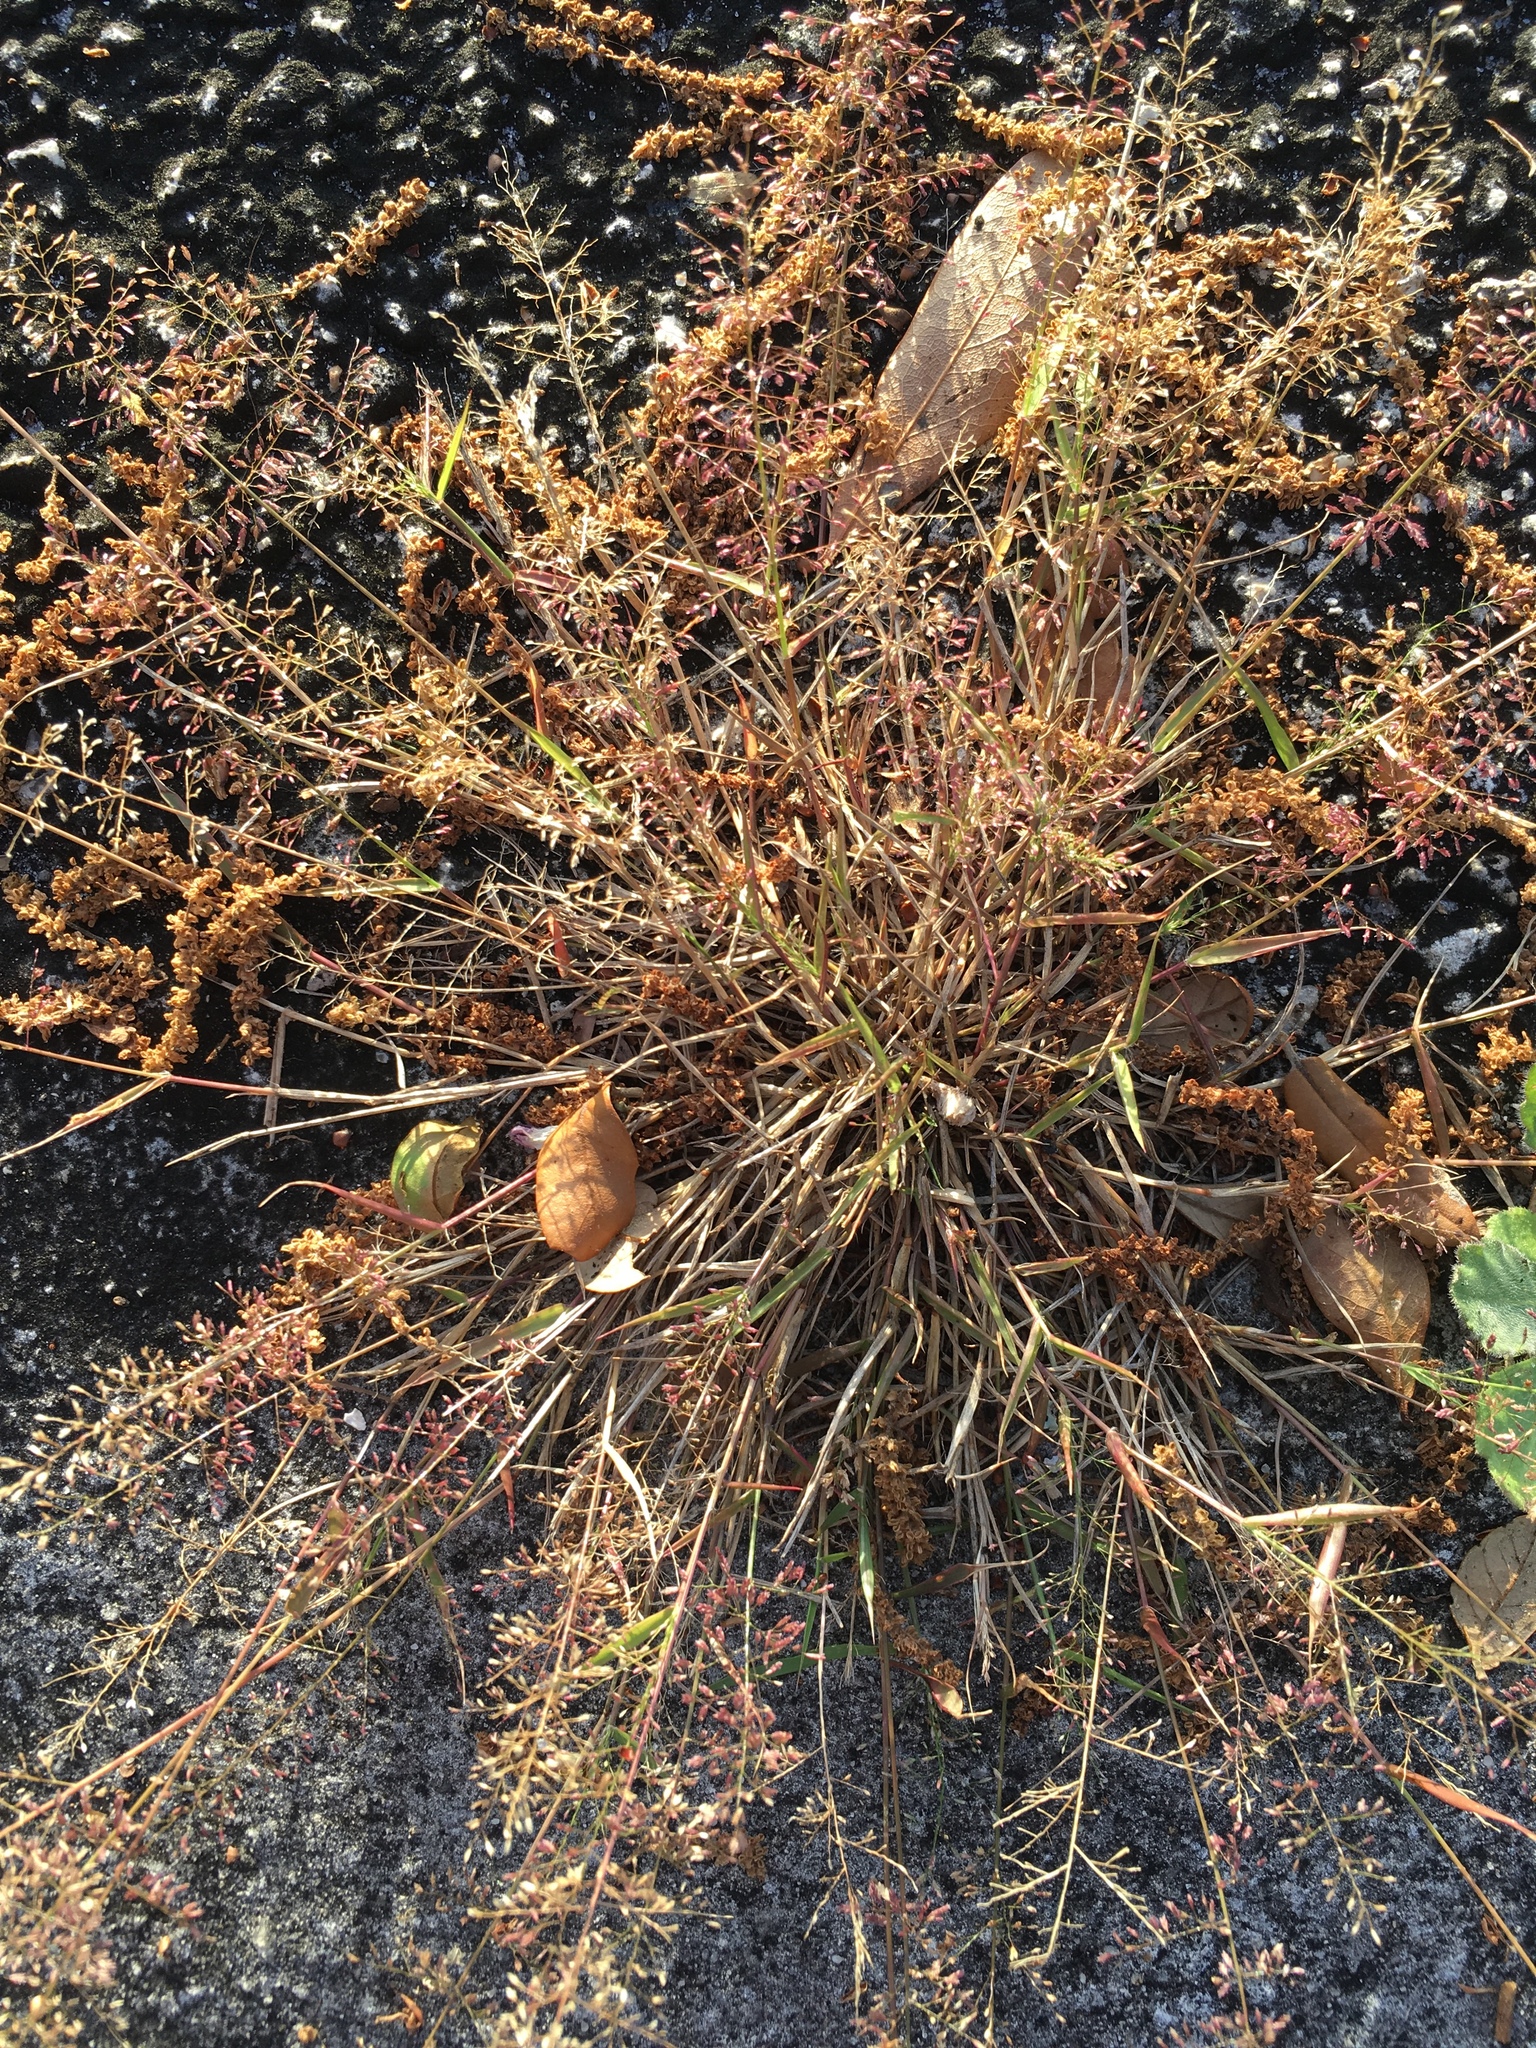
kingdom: Plantae
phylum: Tracheophyta
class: Liliopsida
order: Poales
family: Poaceae
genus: Eragrostis
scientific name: Eragrostis tenella
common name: Japanese lovegrass
